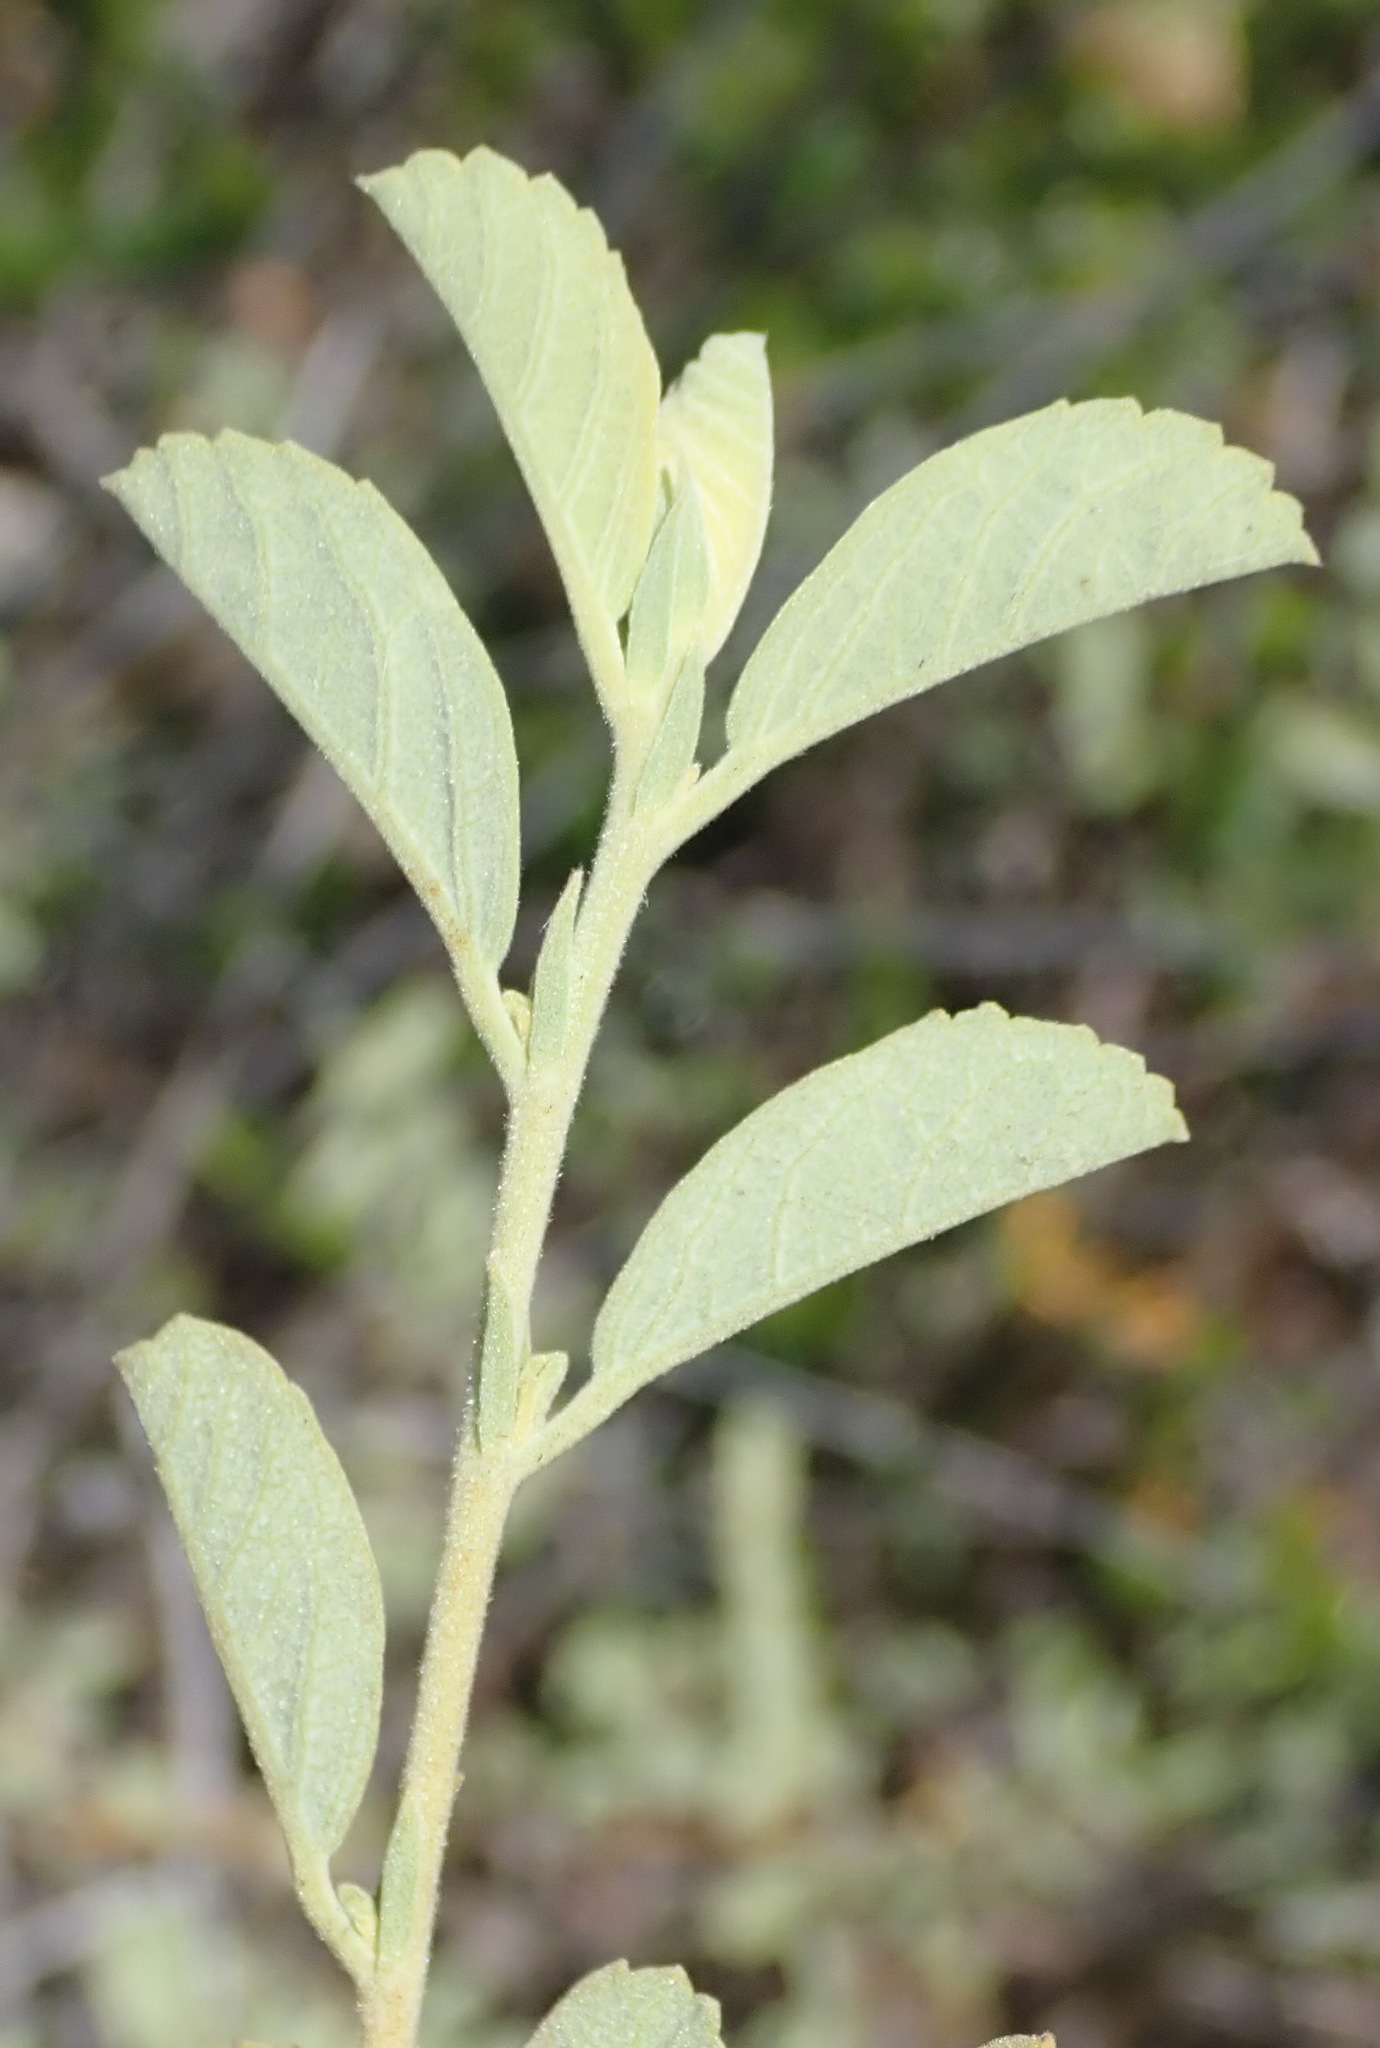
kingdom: Plantae
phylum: Tracheophyta
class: Magnoliopsida
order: Malvales
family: Malvaceae
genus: Hermannia
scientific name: Hermannia holosericea
